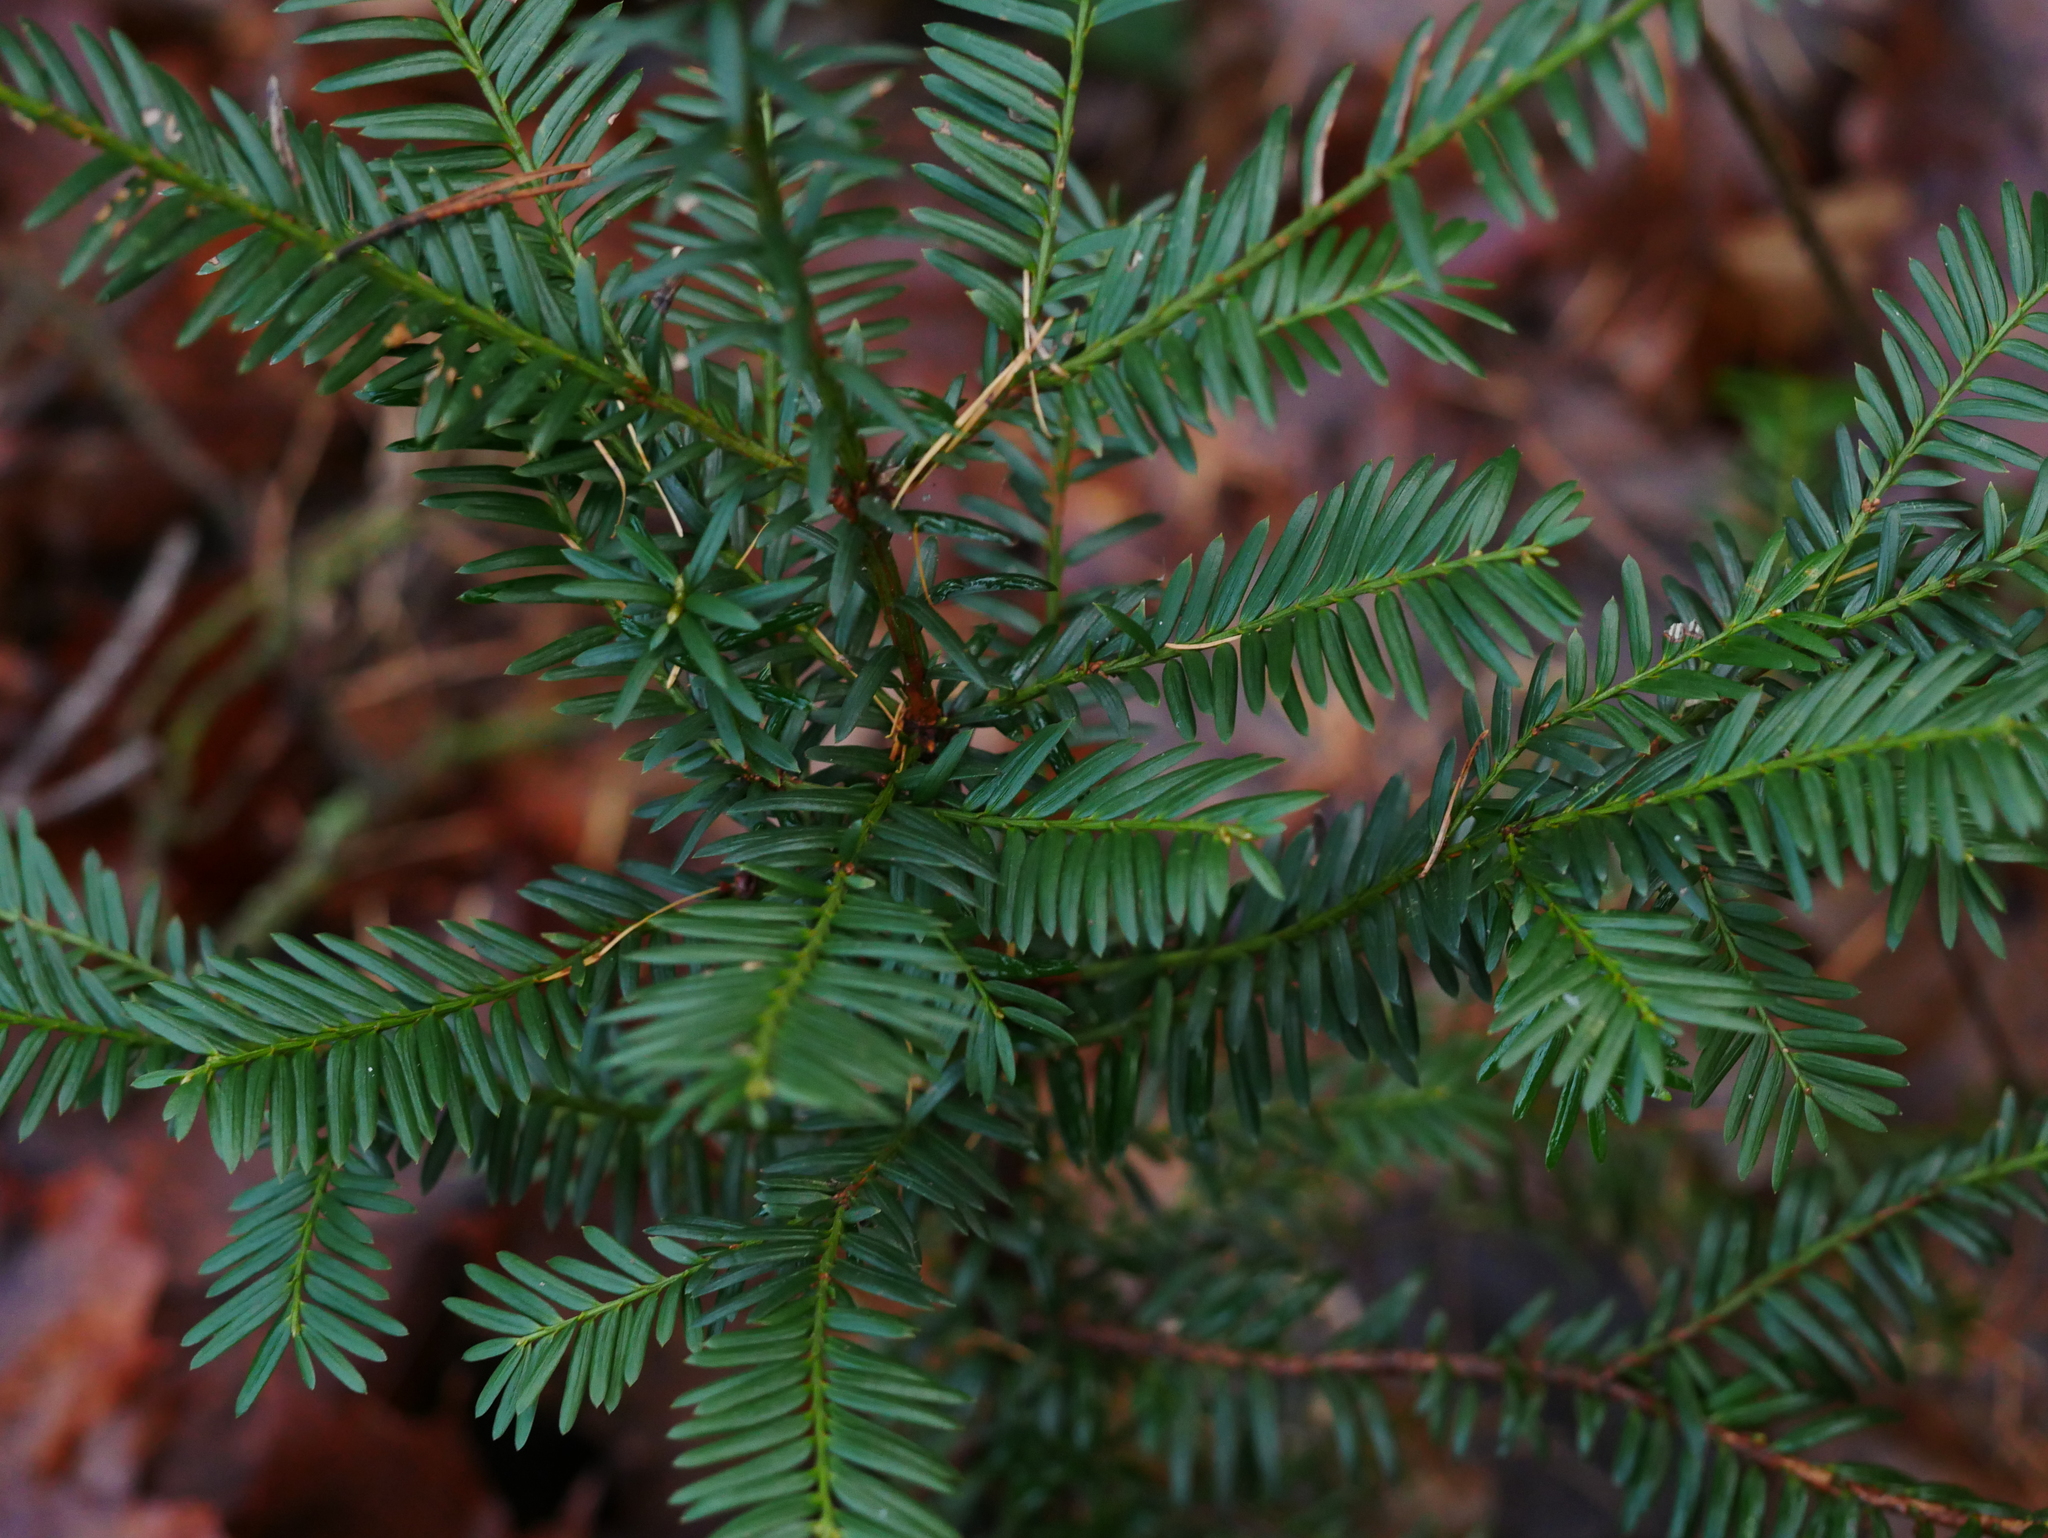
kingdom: Plantae
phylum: Tracheophyta
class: Pinopsida
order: Pinales
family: Taxaceae
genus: Taxus
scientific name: Taxus baccata
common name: Yew
